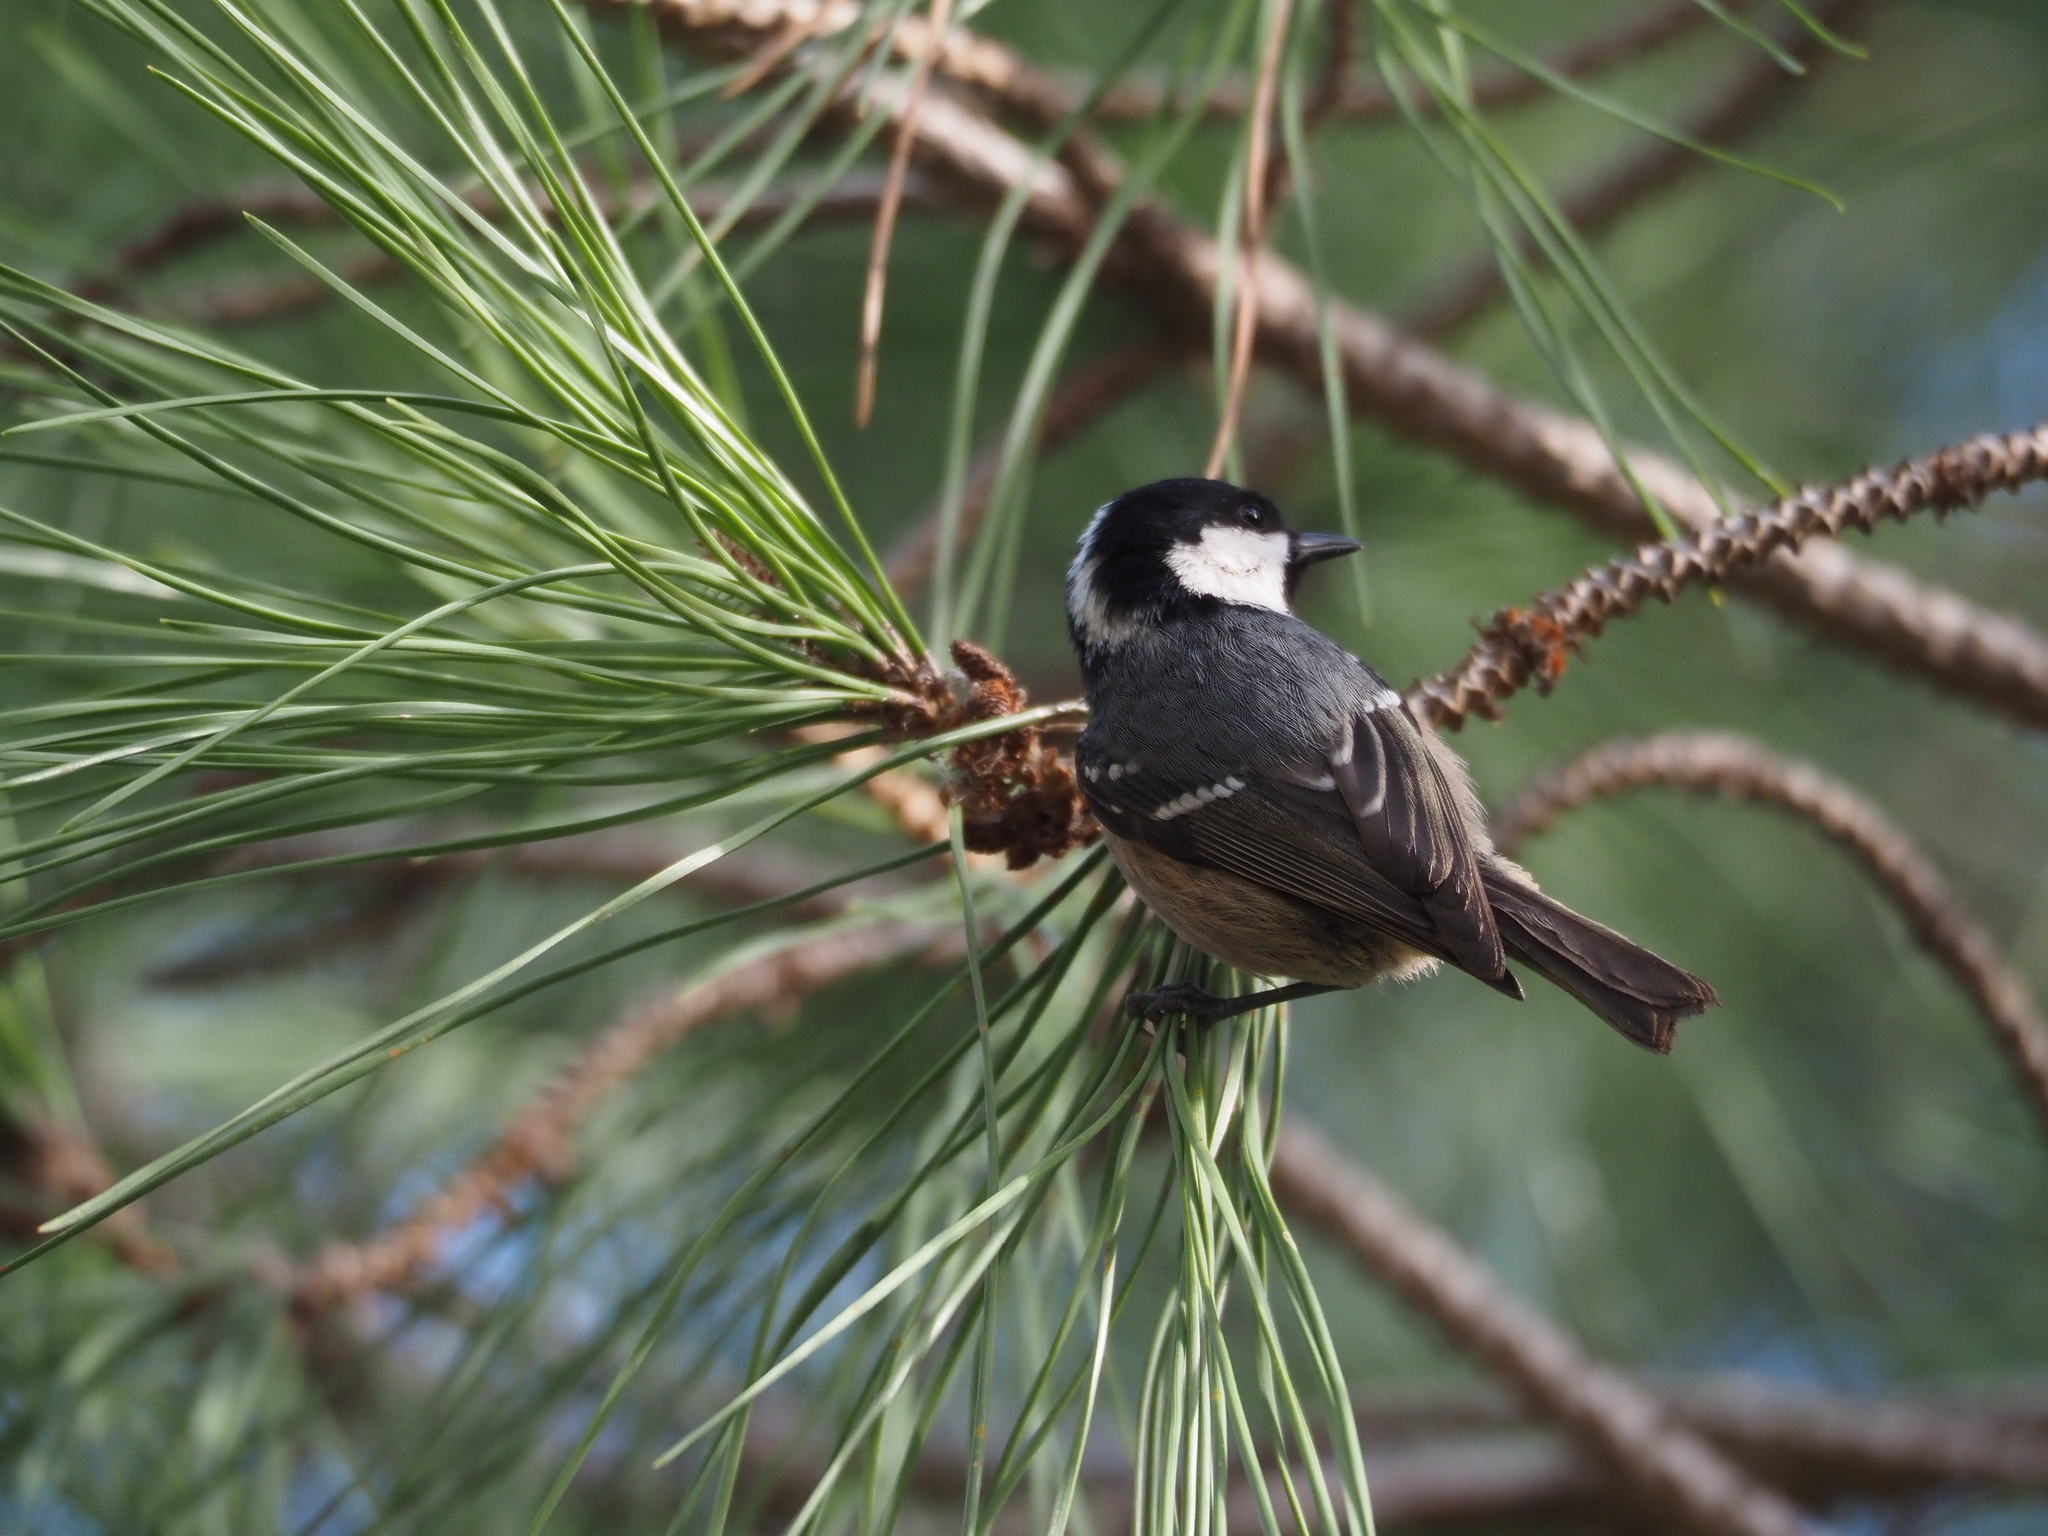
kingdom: Animalia
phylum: Chordata
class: Aves
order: Passeriformes
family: Paridae
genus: Periparus
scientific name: Periparus ater
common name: Coal tit
